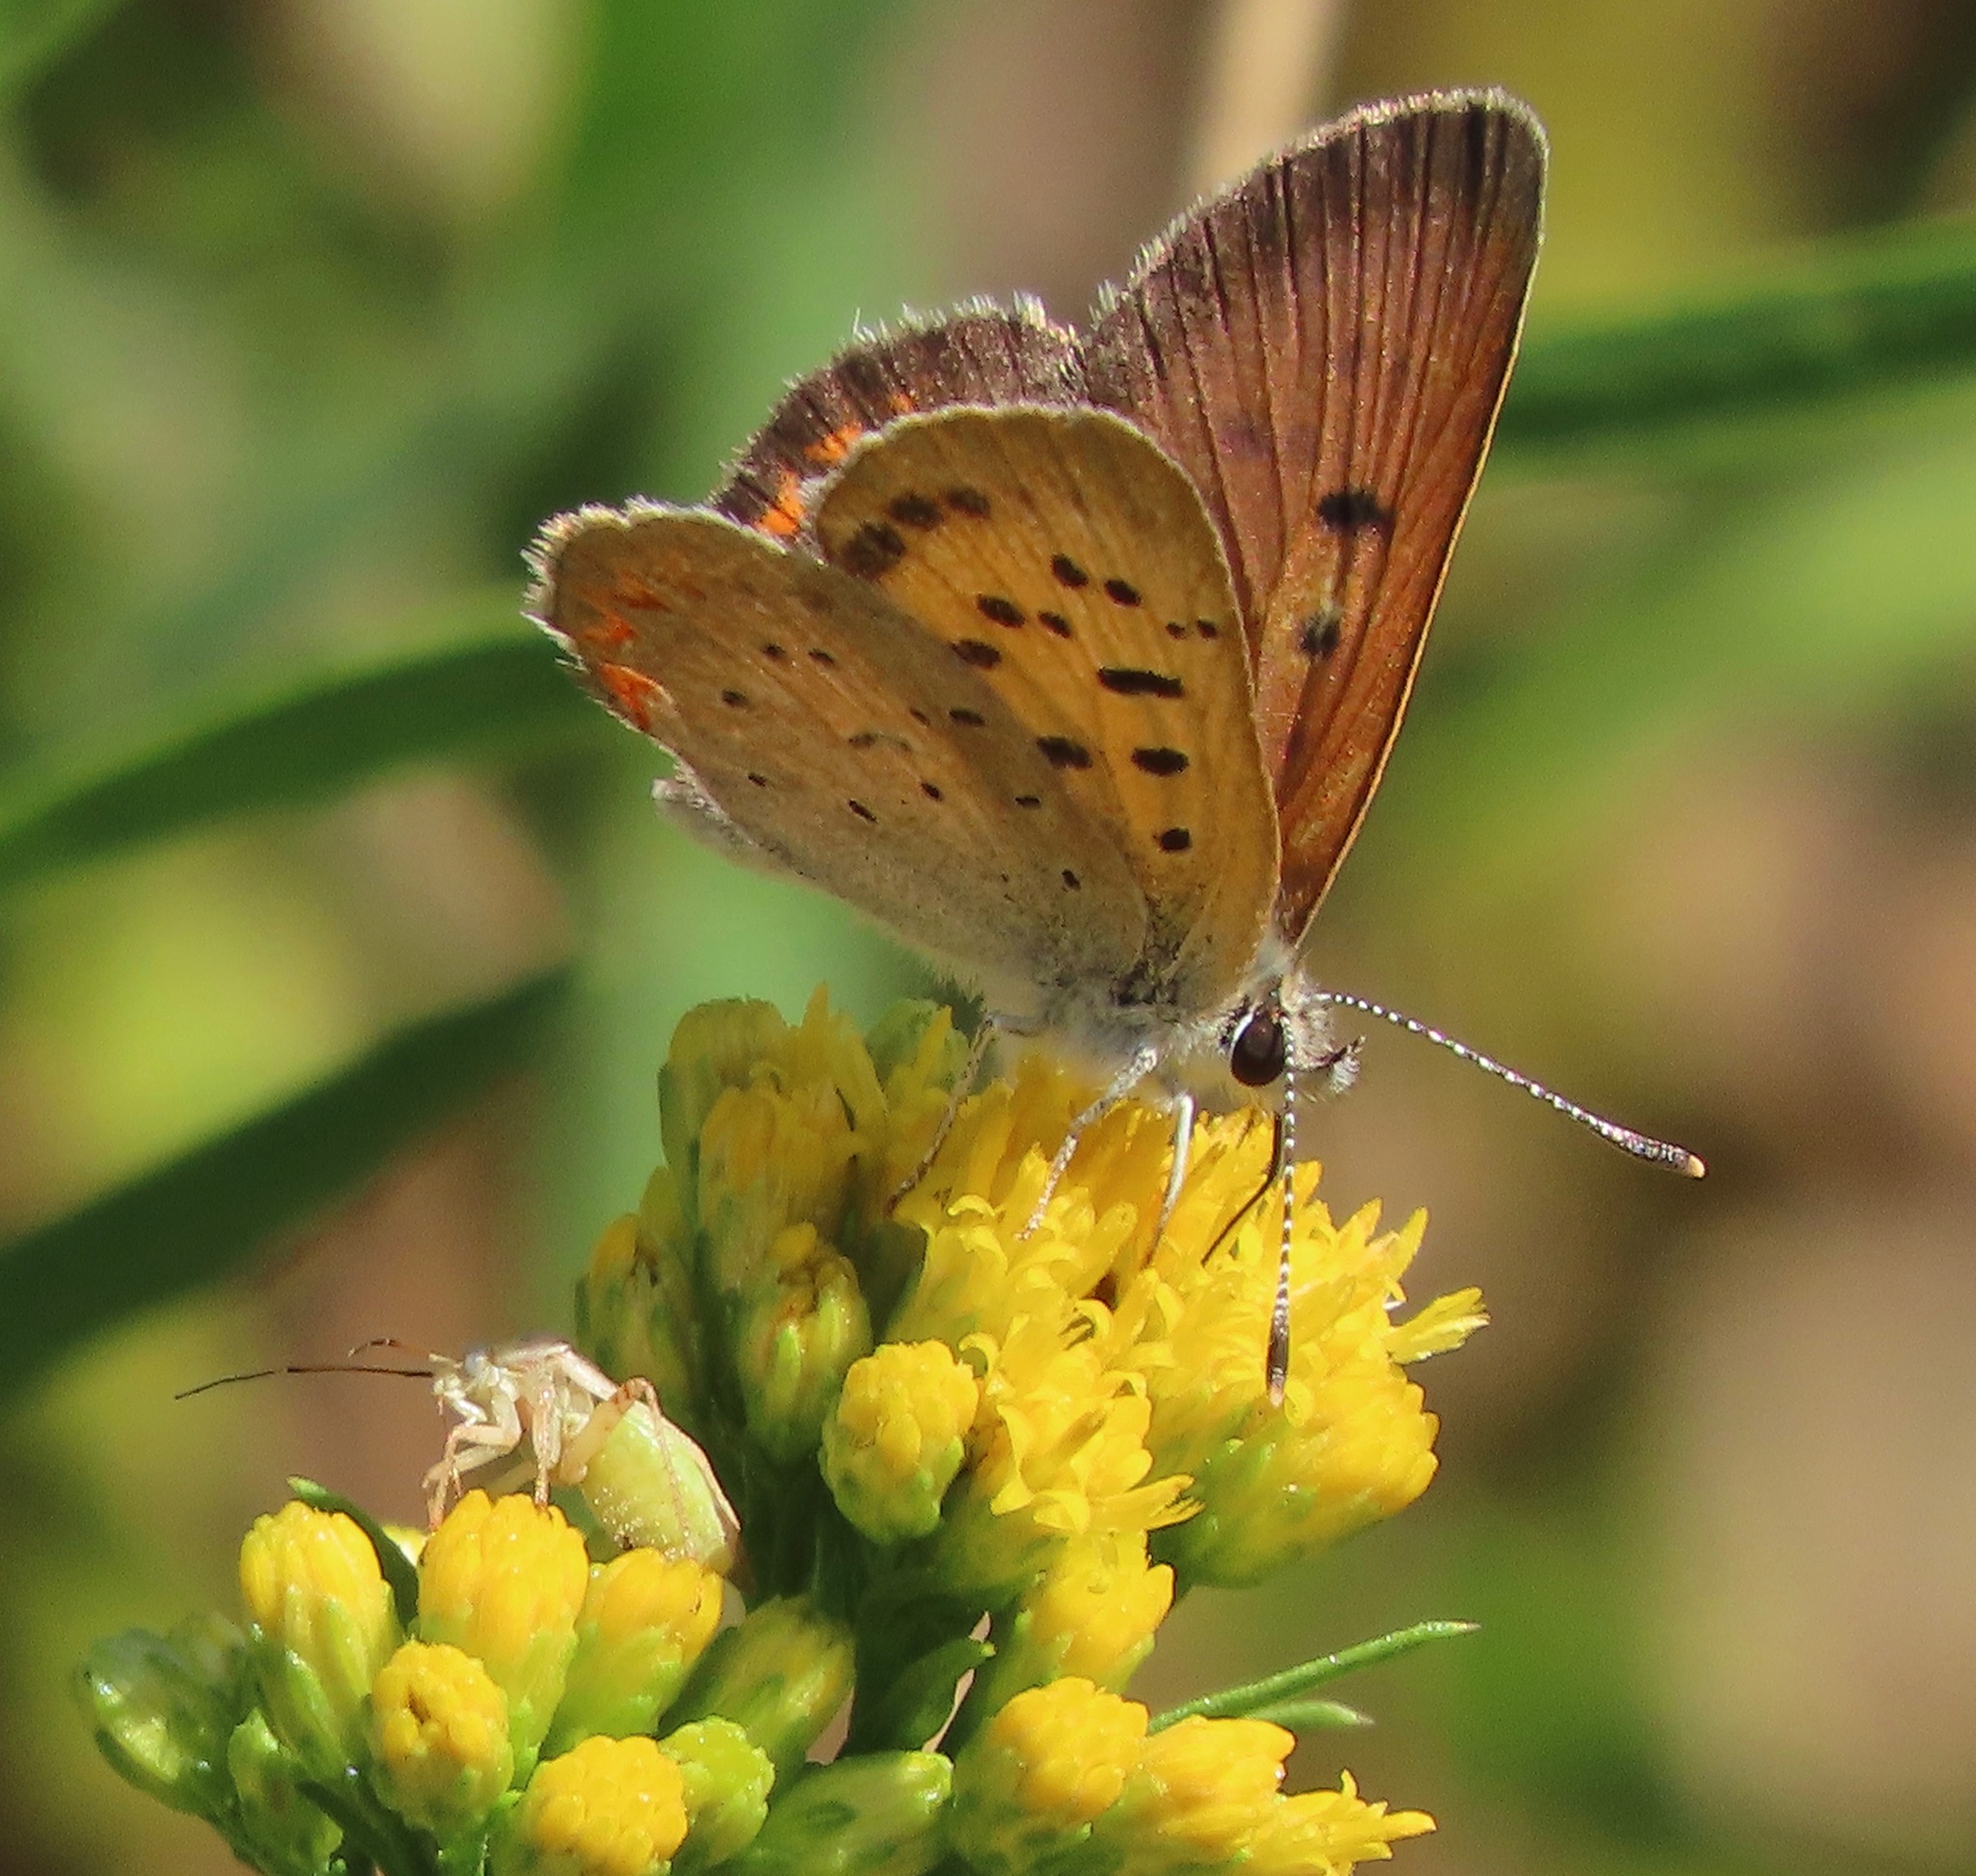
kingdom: Animalia
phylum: Arthropoda
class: Insecta
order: Lepidoptera
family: Lycaenidae
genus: Tharsalea
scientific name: Tharsalea helloides
